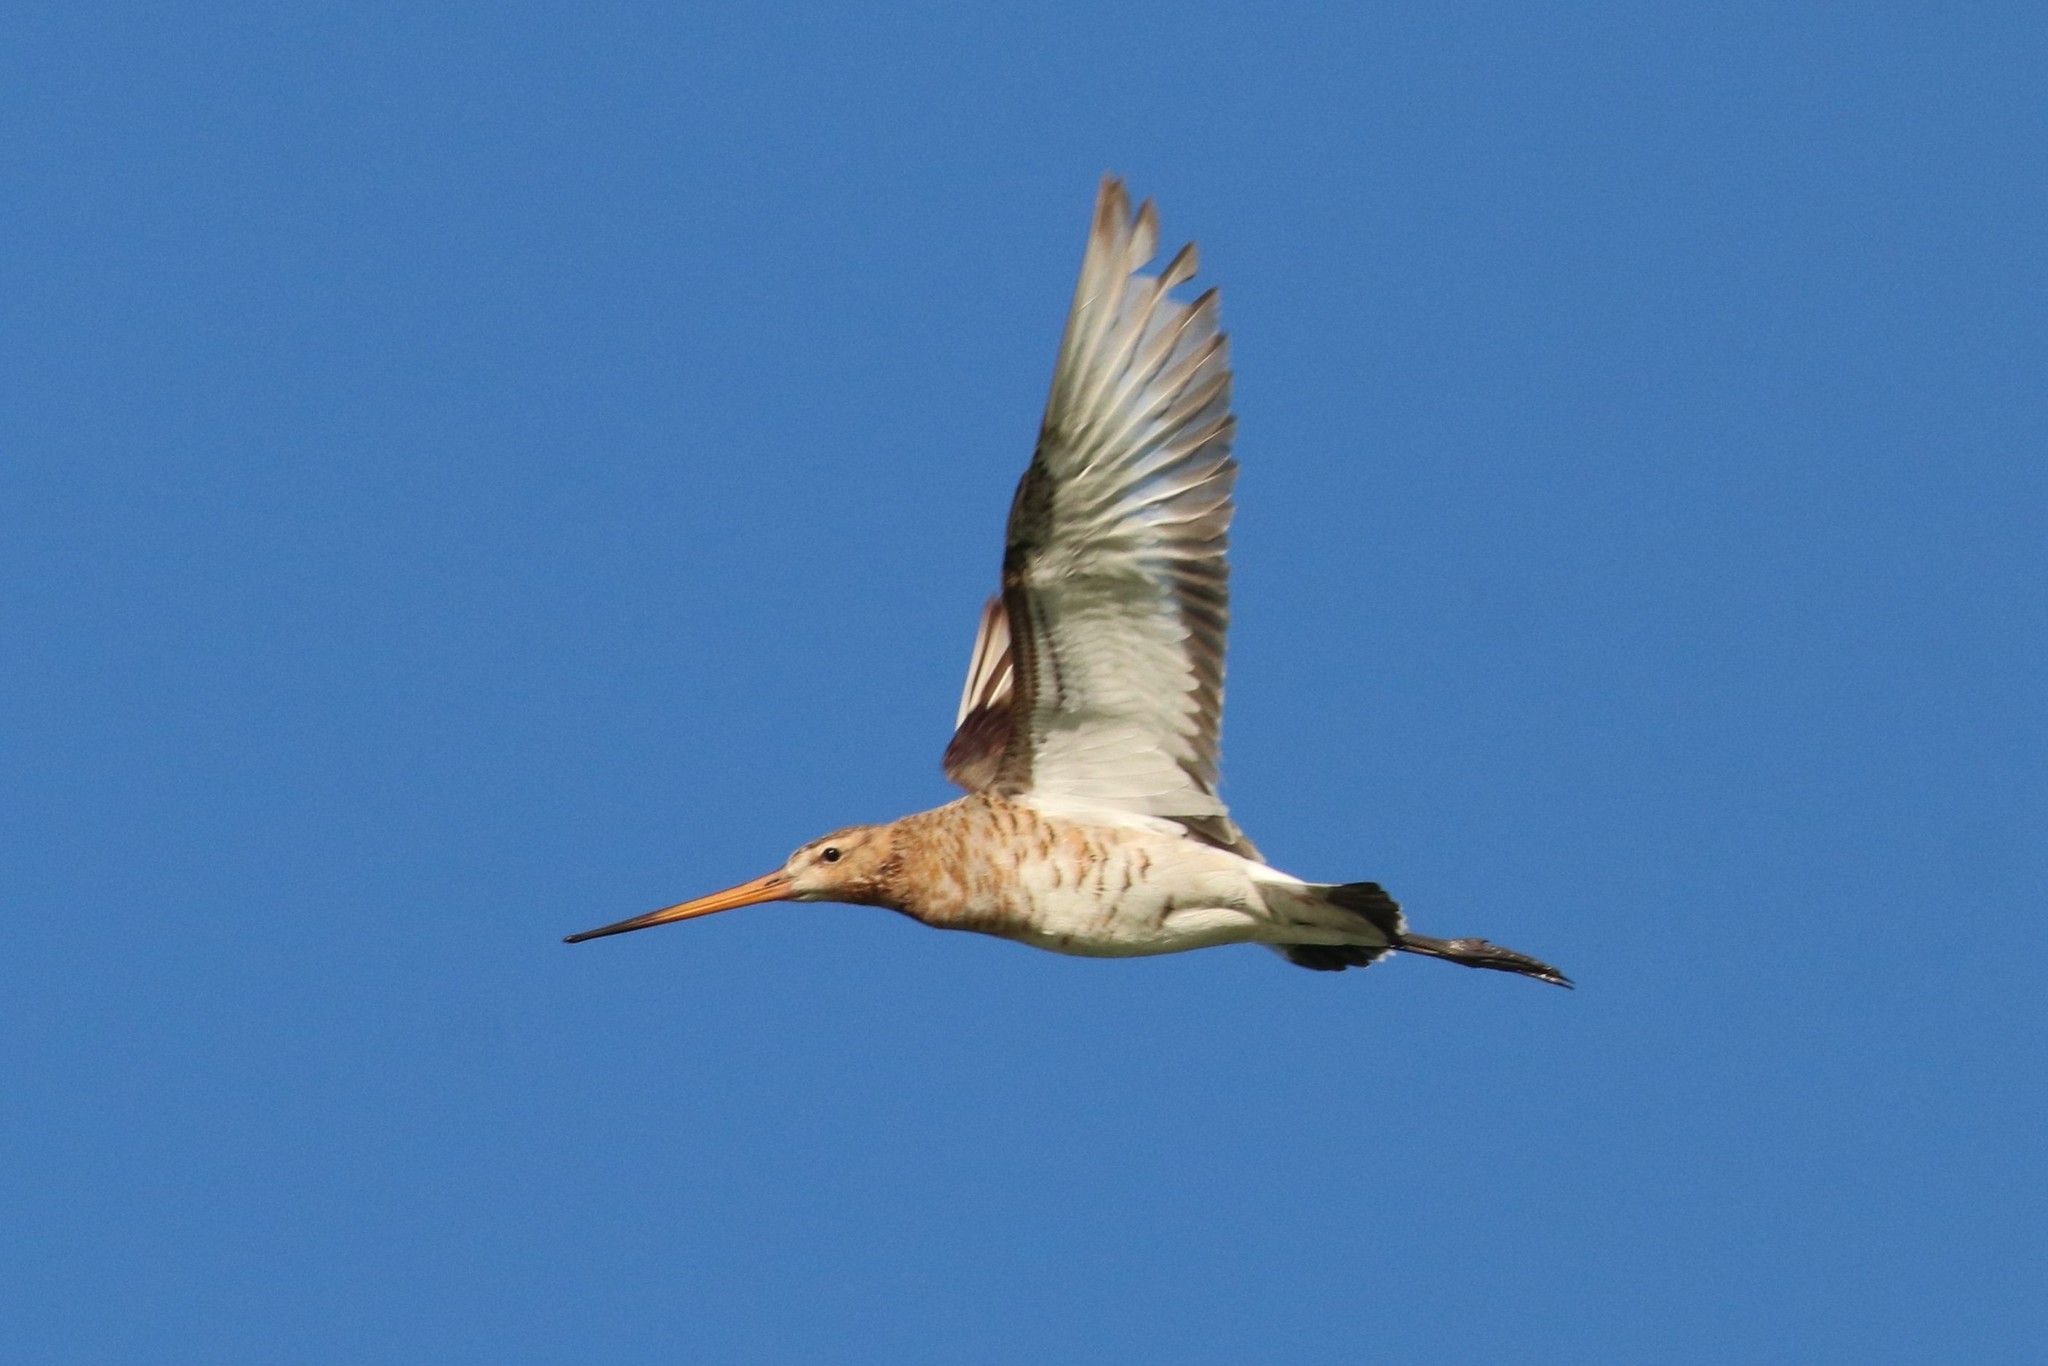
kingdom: Animalia
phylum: Chordata
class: Aves
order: Charadriiformes
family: Scolopacidae
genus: Limosa
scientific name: Limosa limosa
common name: Black-tailed godwit
